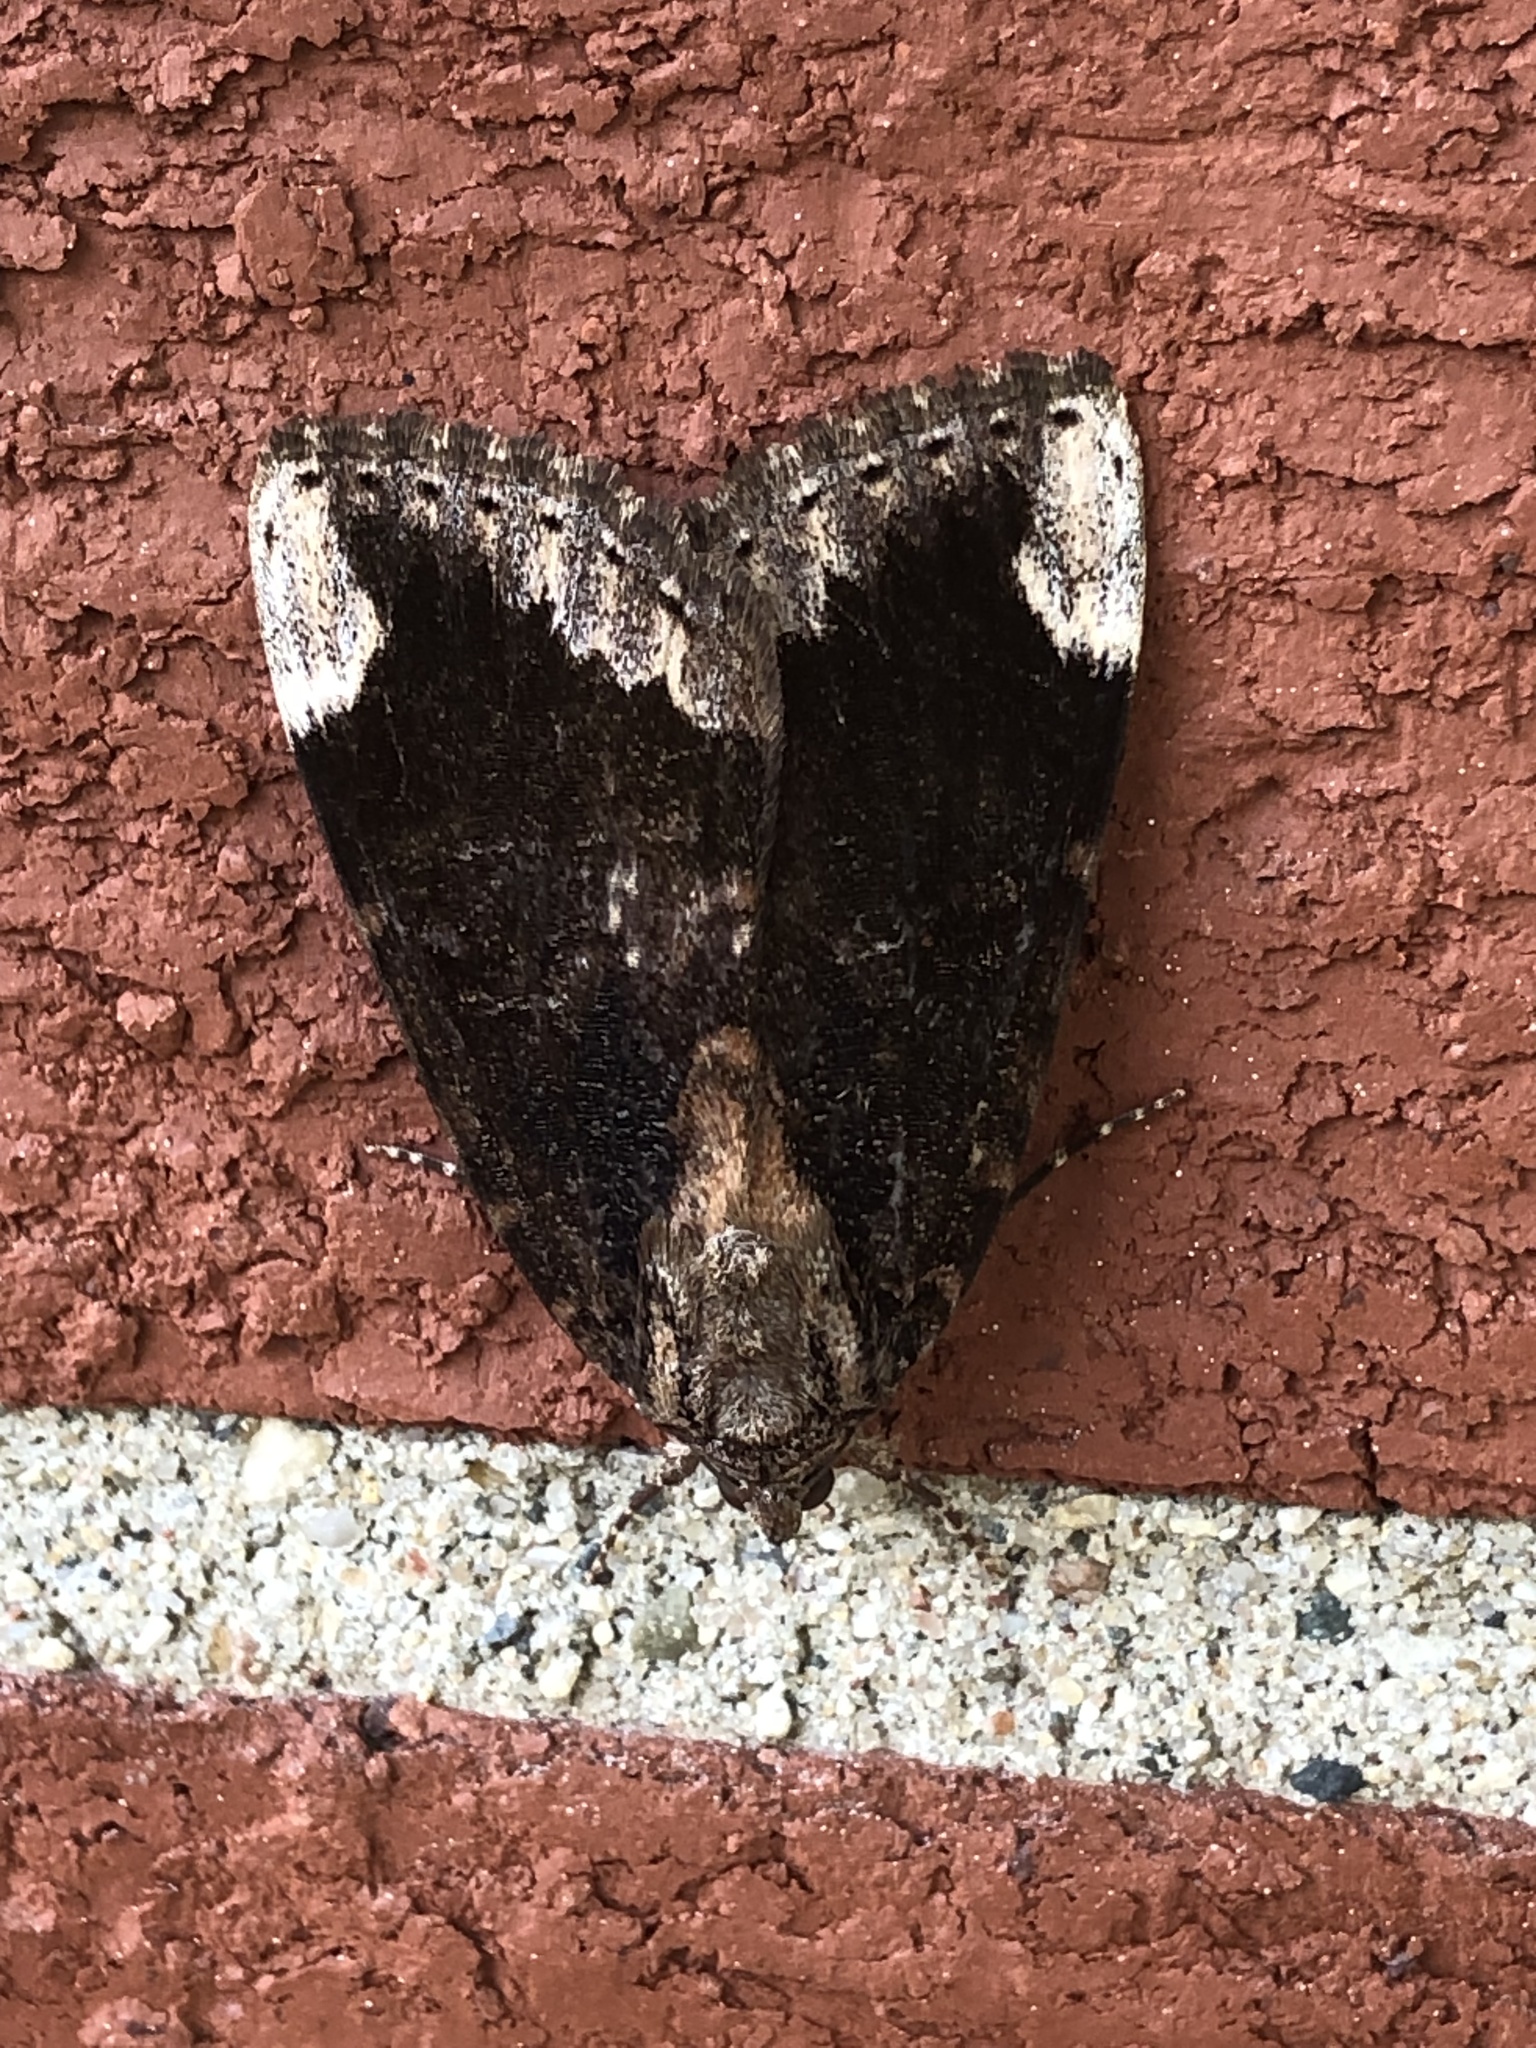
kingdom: Animalia
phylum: Arthropoda
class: Insecta
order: Lepidoptera
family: Erebidae
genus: Catocala
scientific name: Catocala innubens
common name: Betrothed underwing
